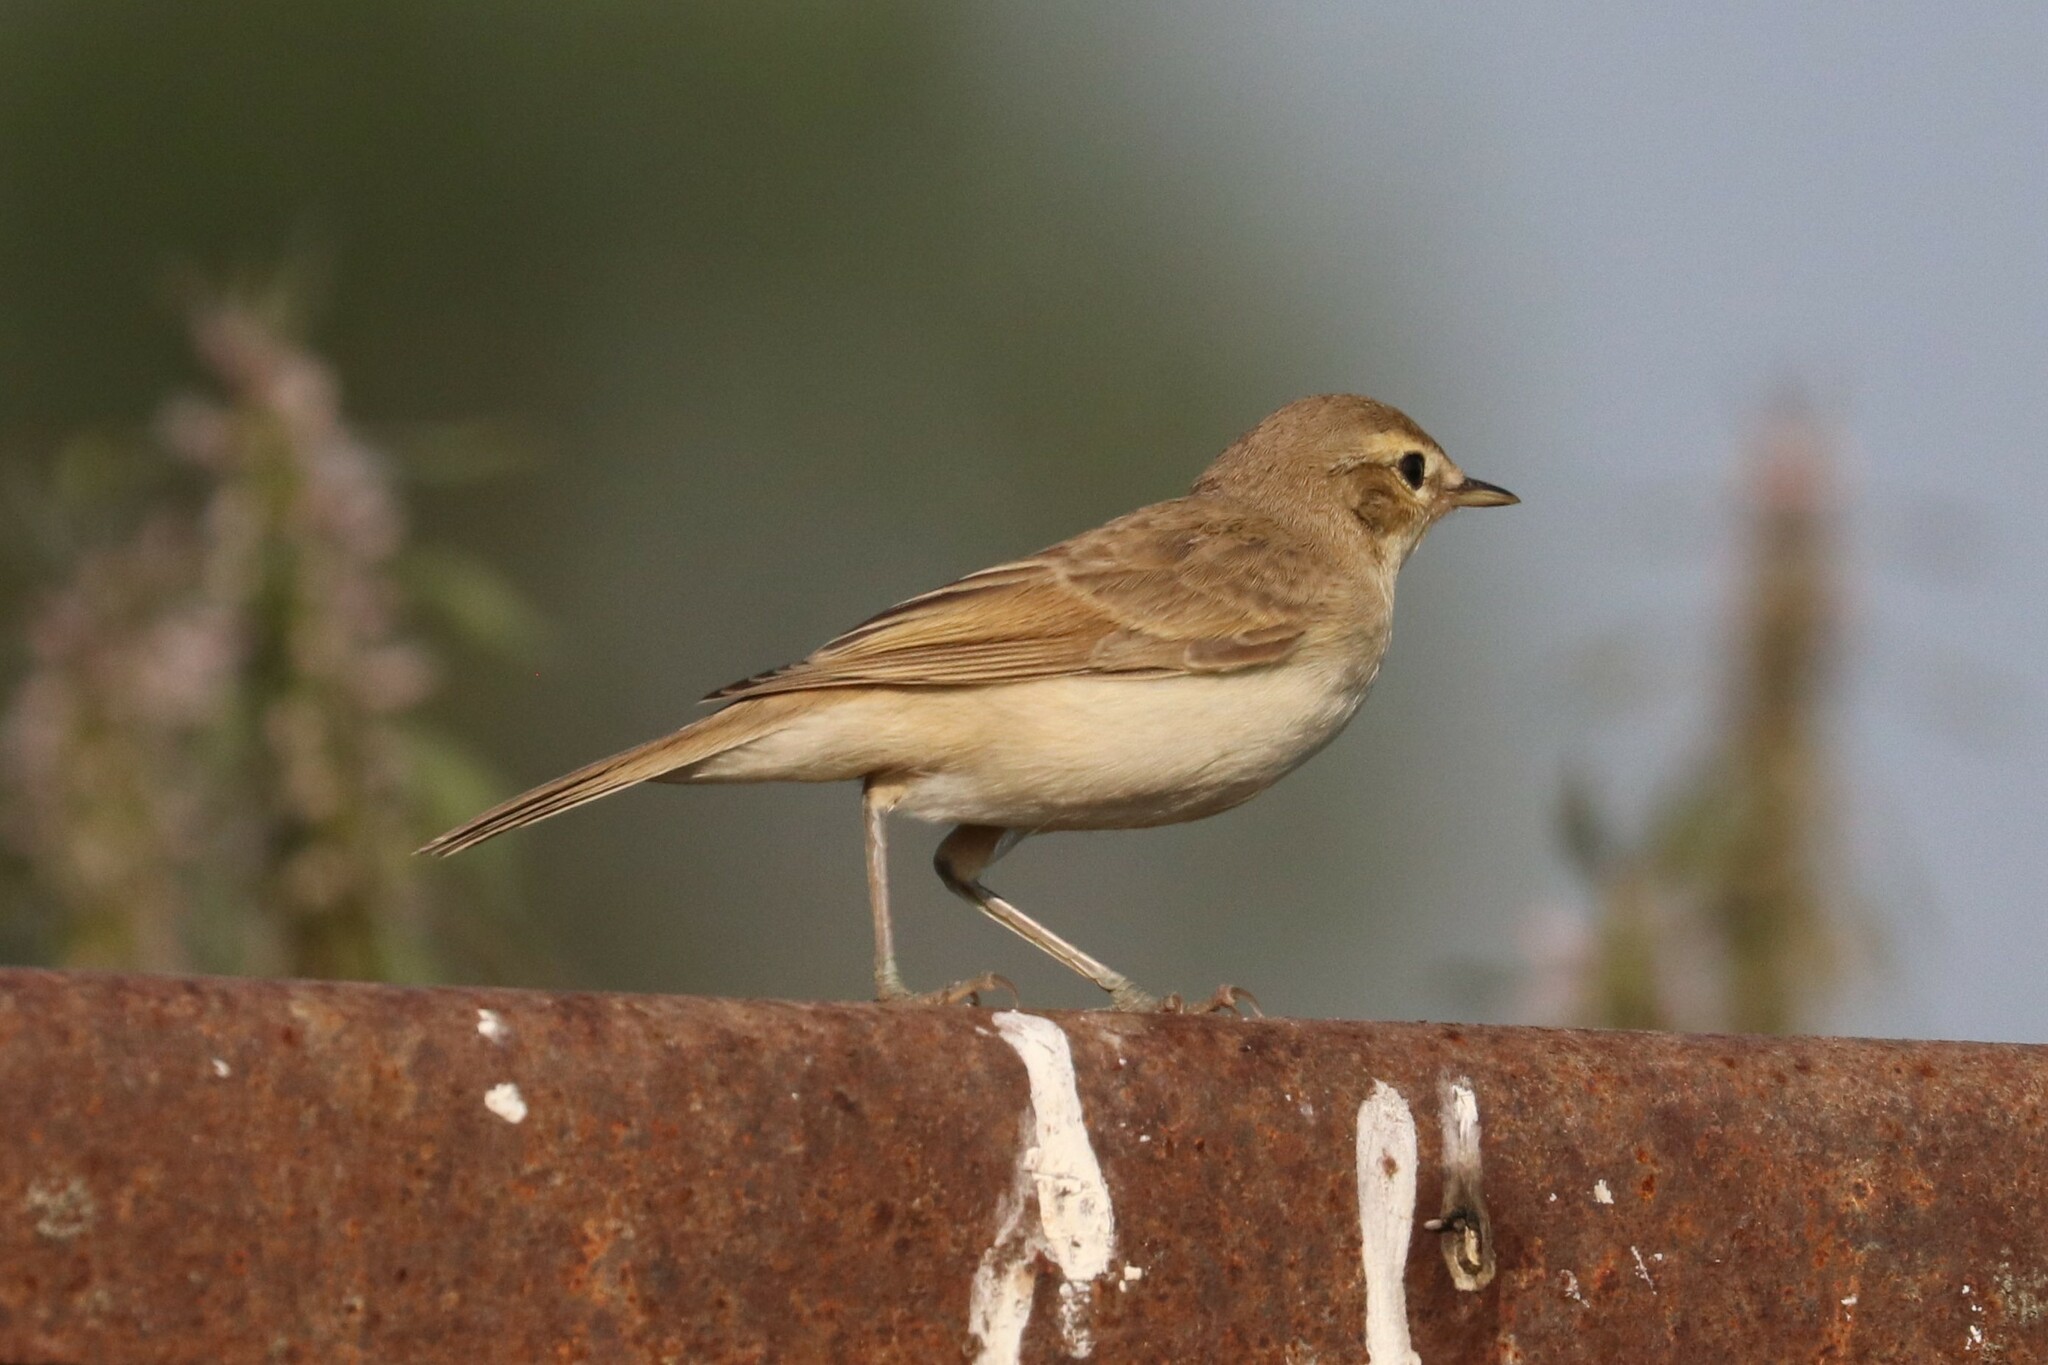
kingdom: Animalia
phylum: Chordata
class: Aves
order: Passeriformes
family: Acrocephalidae
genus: Iduna
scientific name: Iduna caligata
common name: Booted warbler
